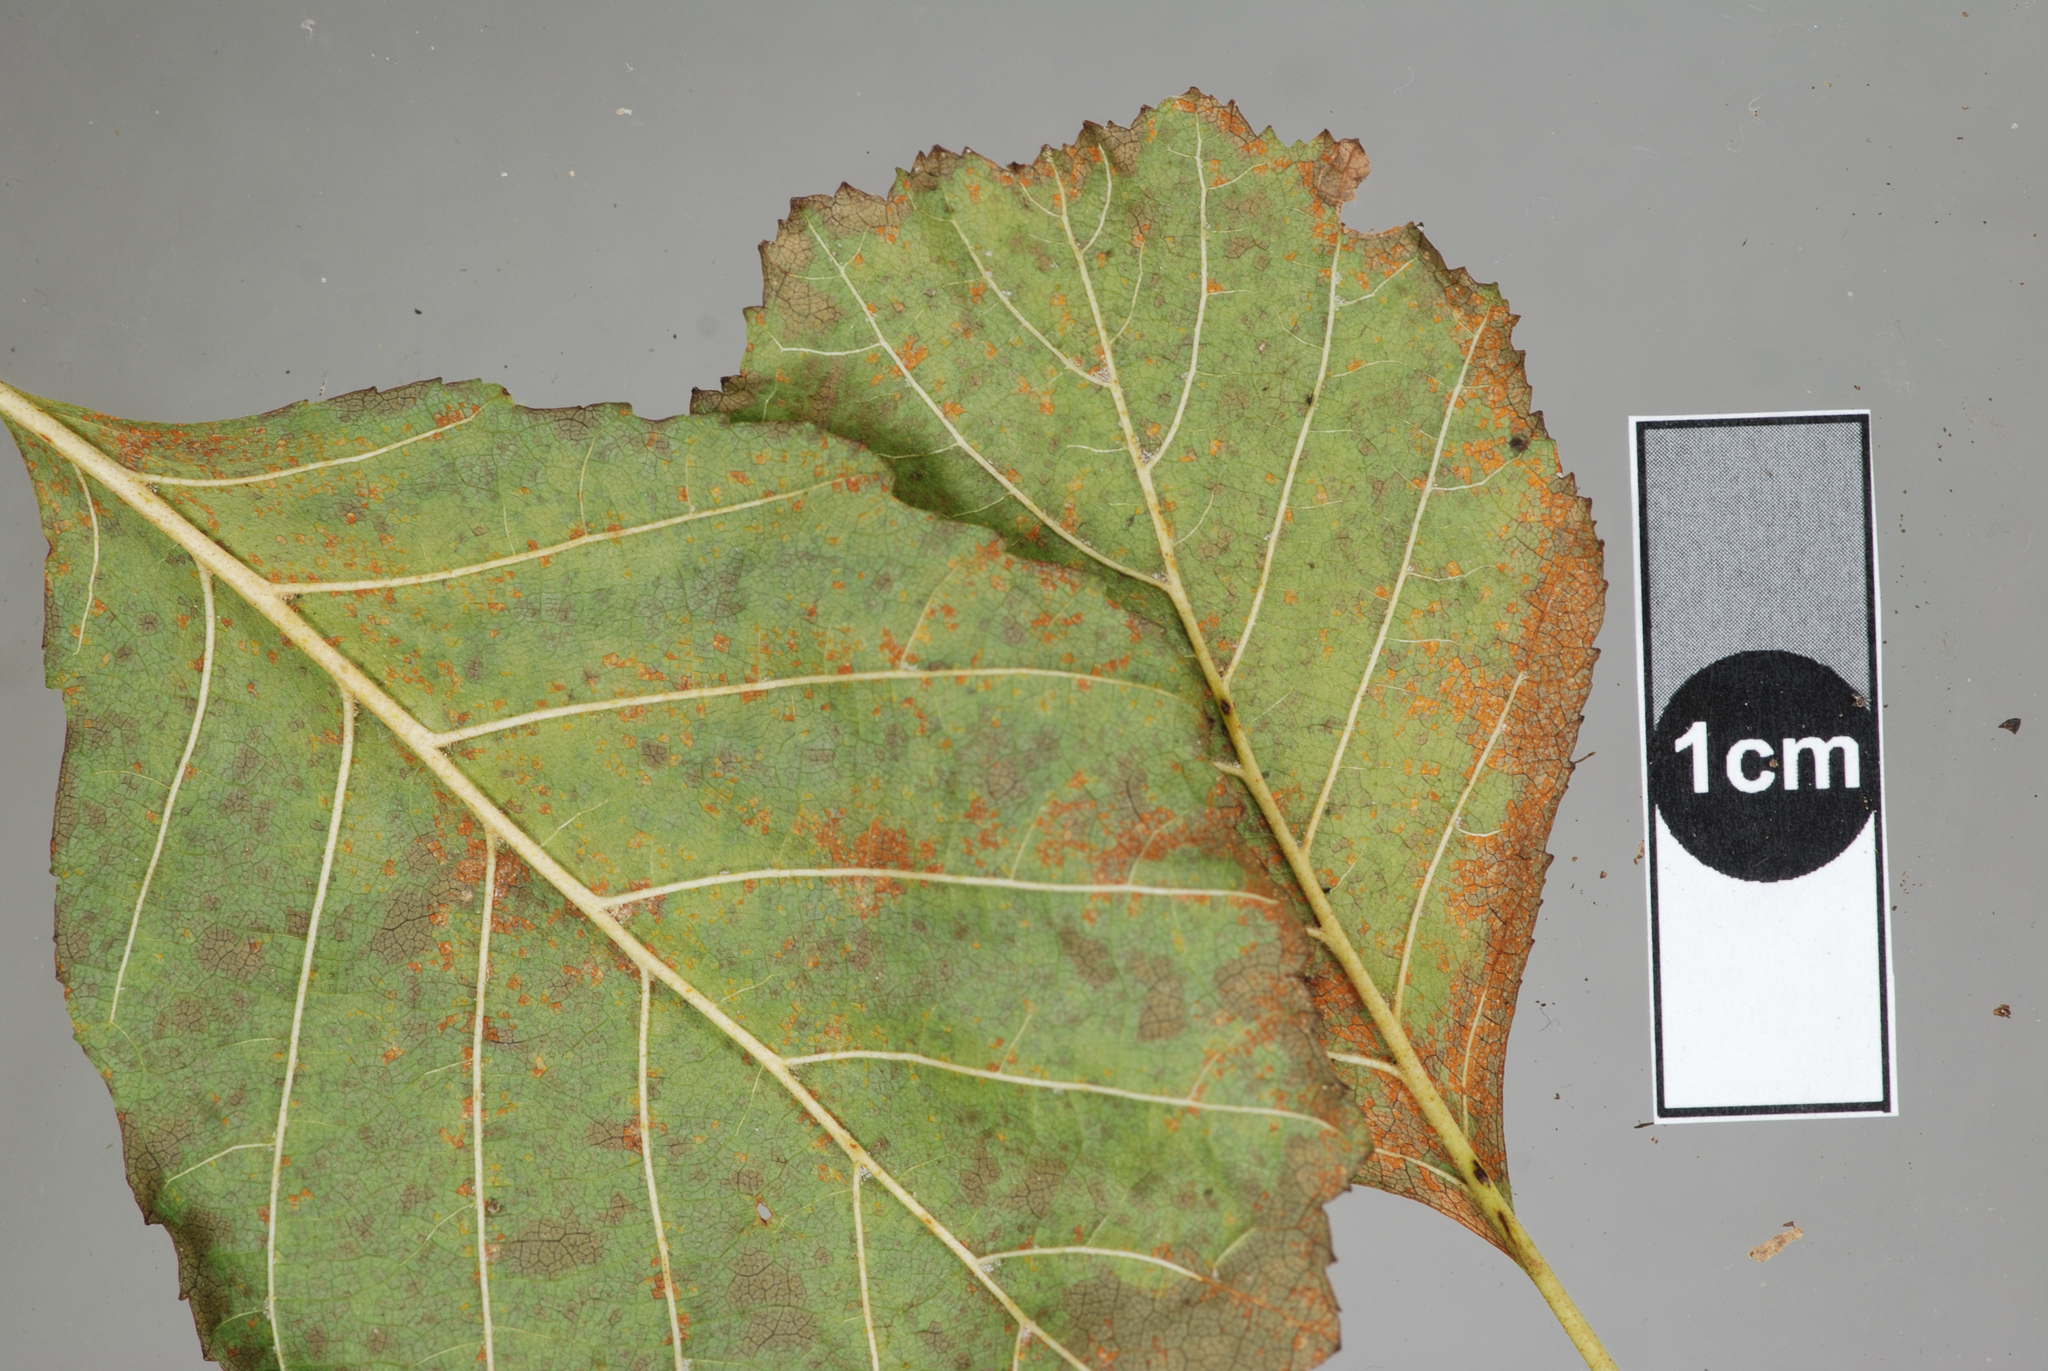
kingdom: Fungi
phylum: Basidiomycota
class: Pucciniomycetes
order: Pucciniales
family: Pucciniastraceae
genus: Melampsoridium
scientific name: Melampsoridium betulinum
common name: Birch rust
